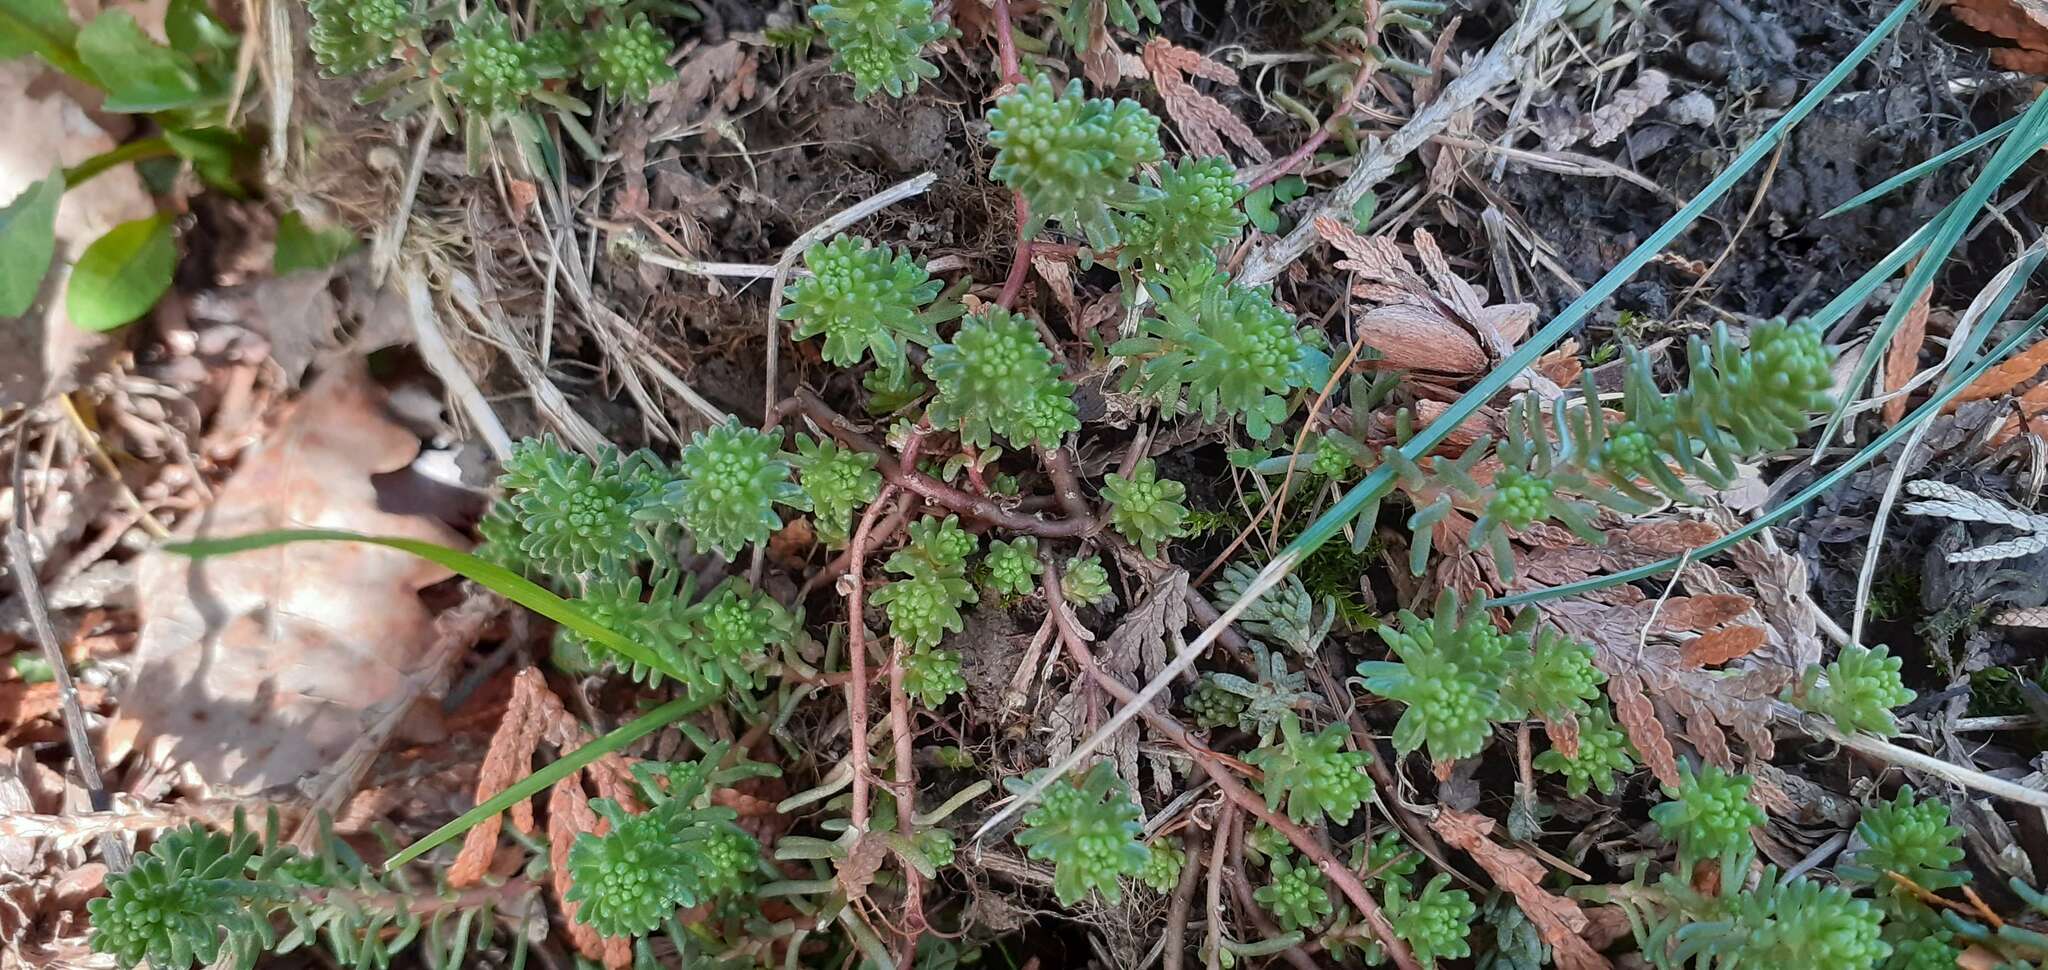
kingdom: Plantae
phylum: Tracheophyta
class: Magnoliopsida
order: Saxifragales
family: Crassulaceae
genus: Sedum
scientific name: Sedum sexangulare
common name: Tasteless stonecrop
